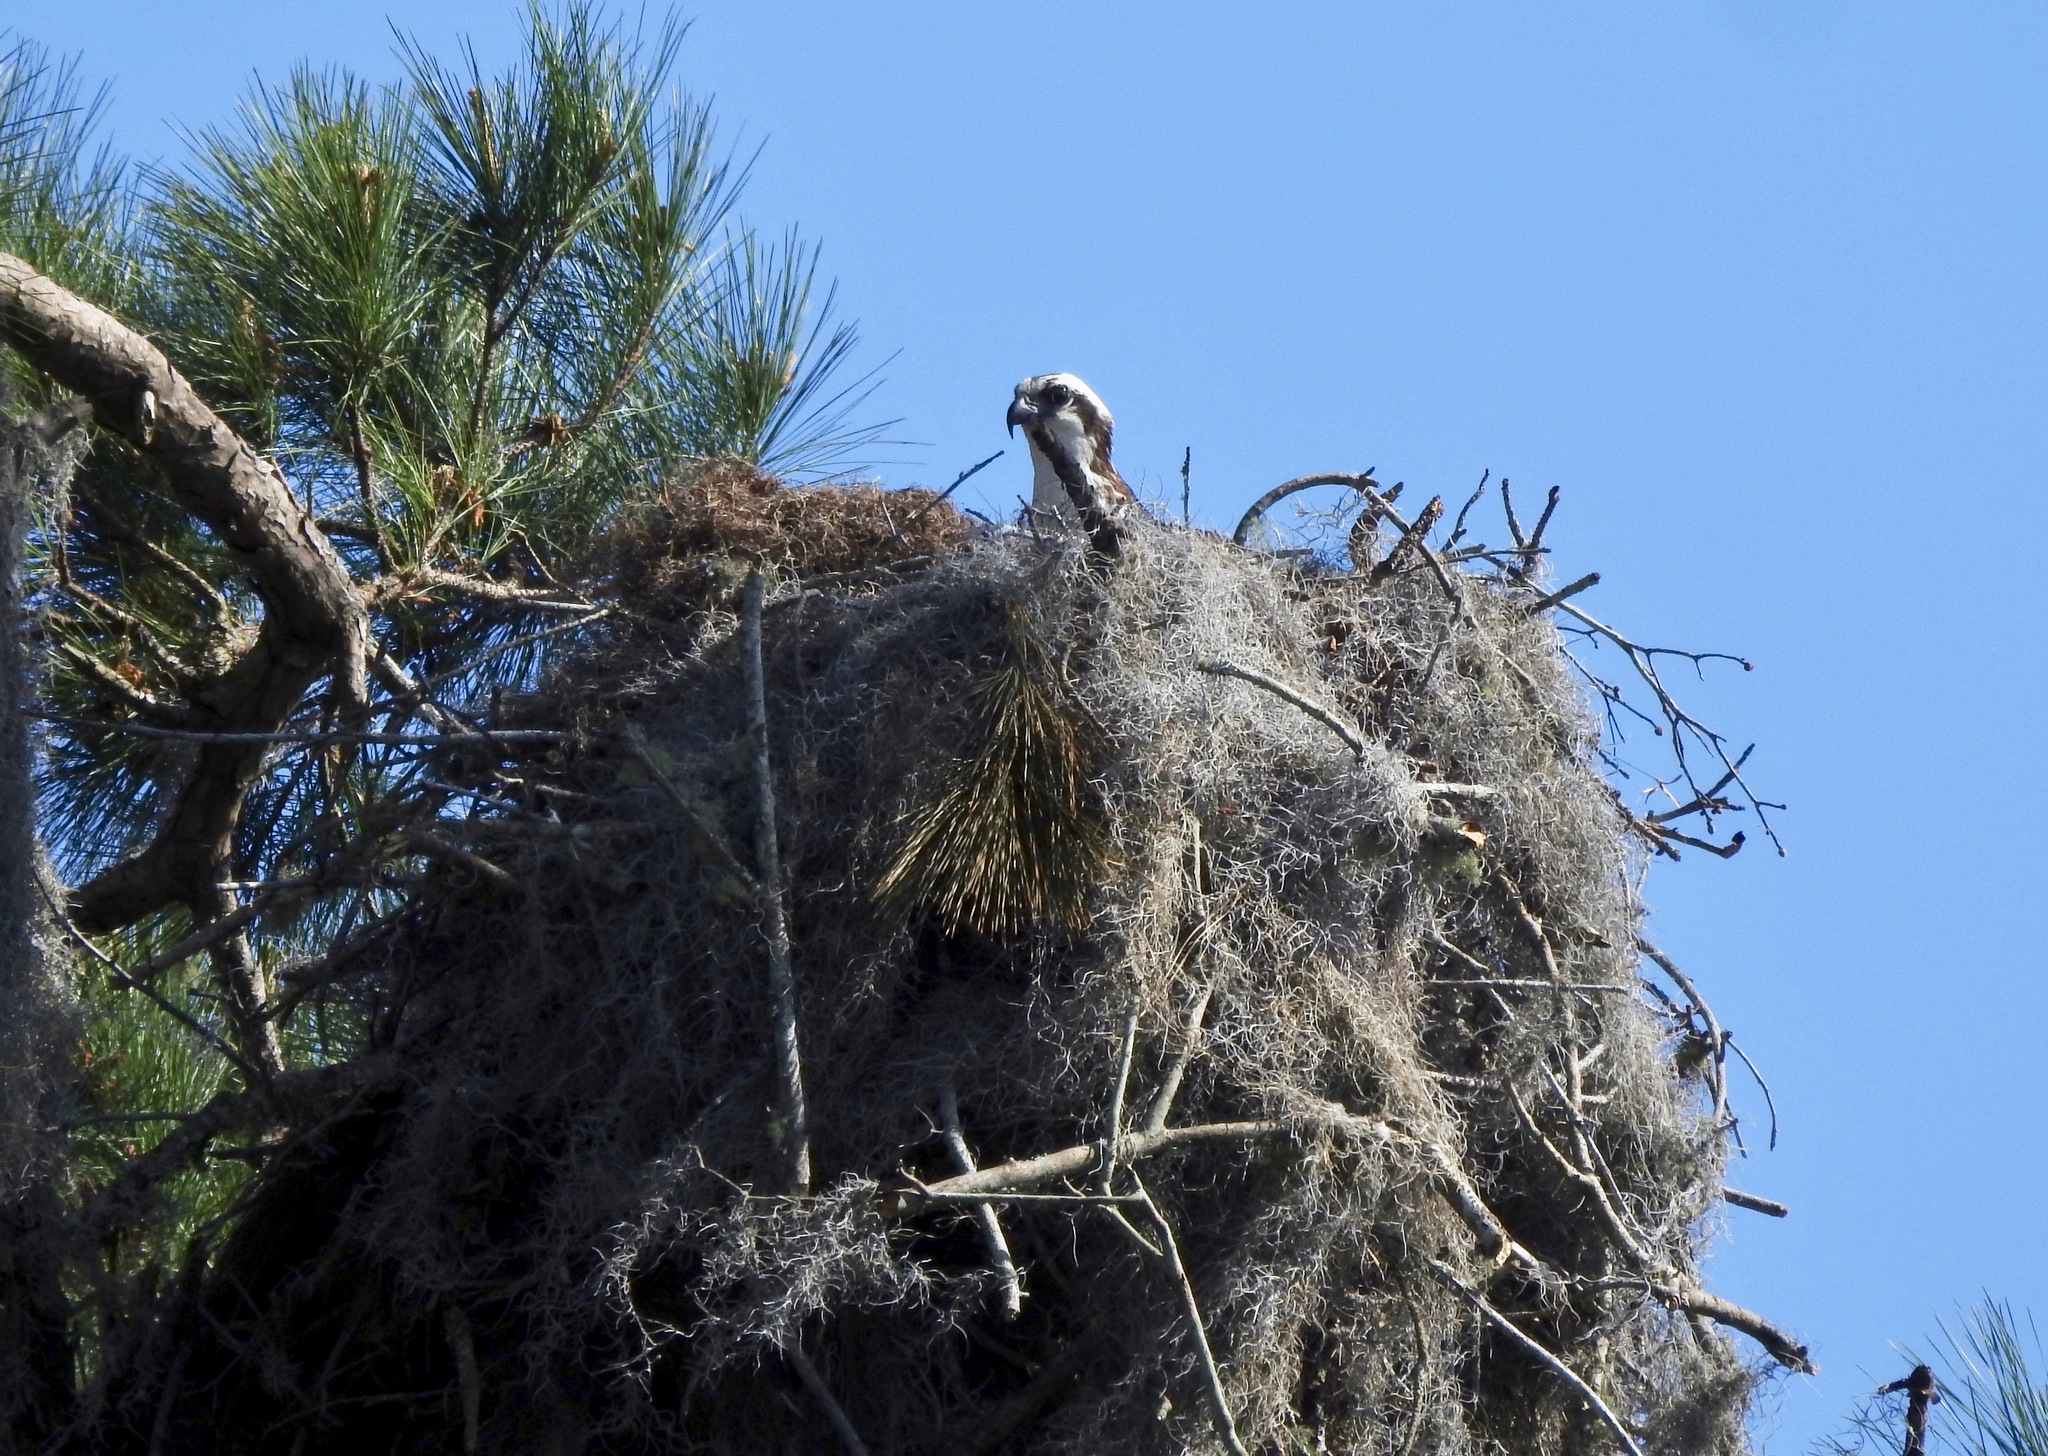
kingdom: Animalia
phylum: Chordata
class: Aves
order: Accipitriformes
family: Pandionidae
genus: Pandion
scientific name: Pandion haliaetus
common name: Osprey
